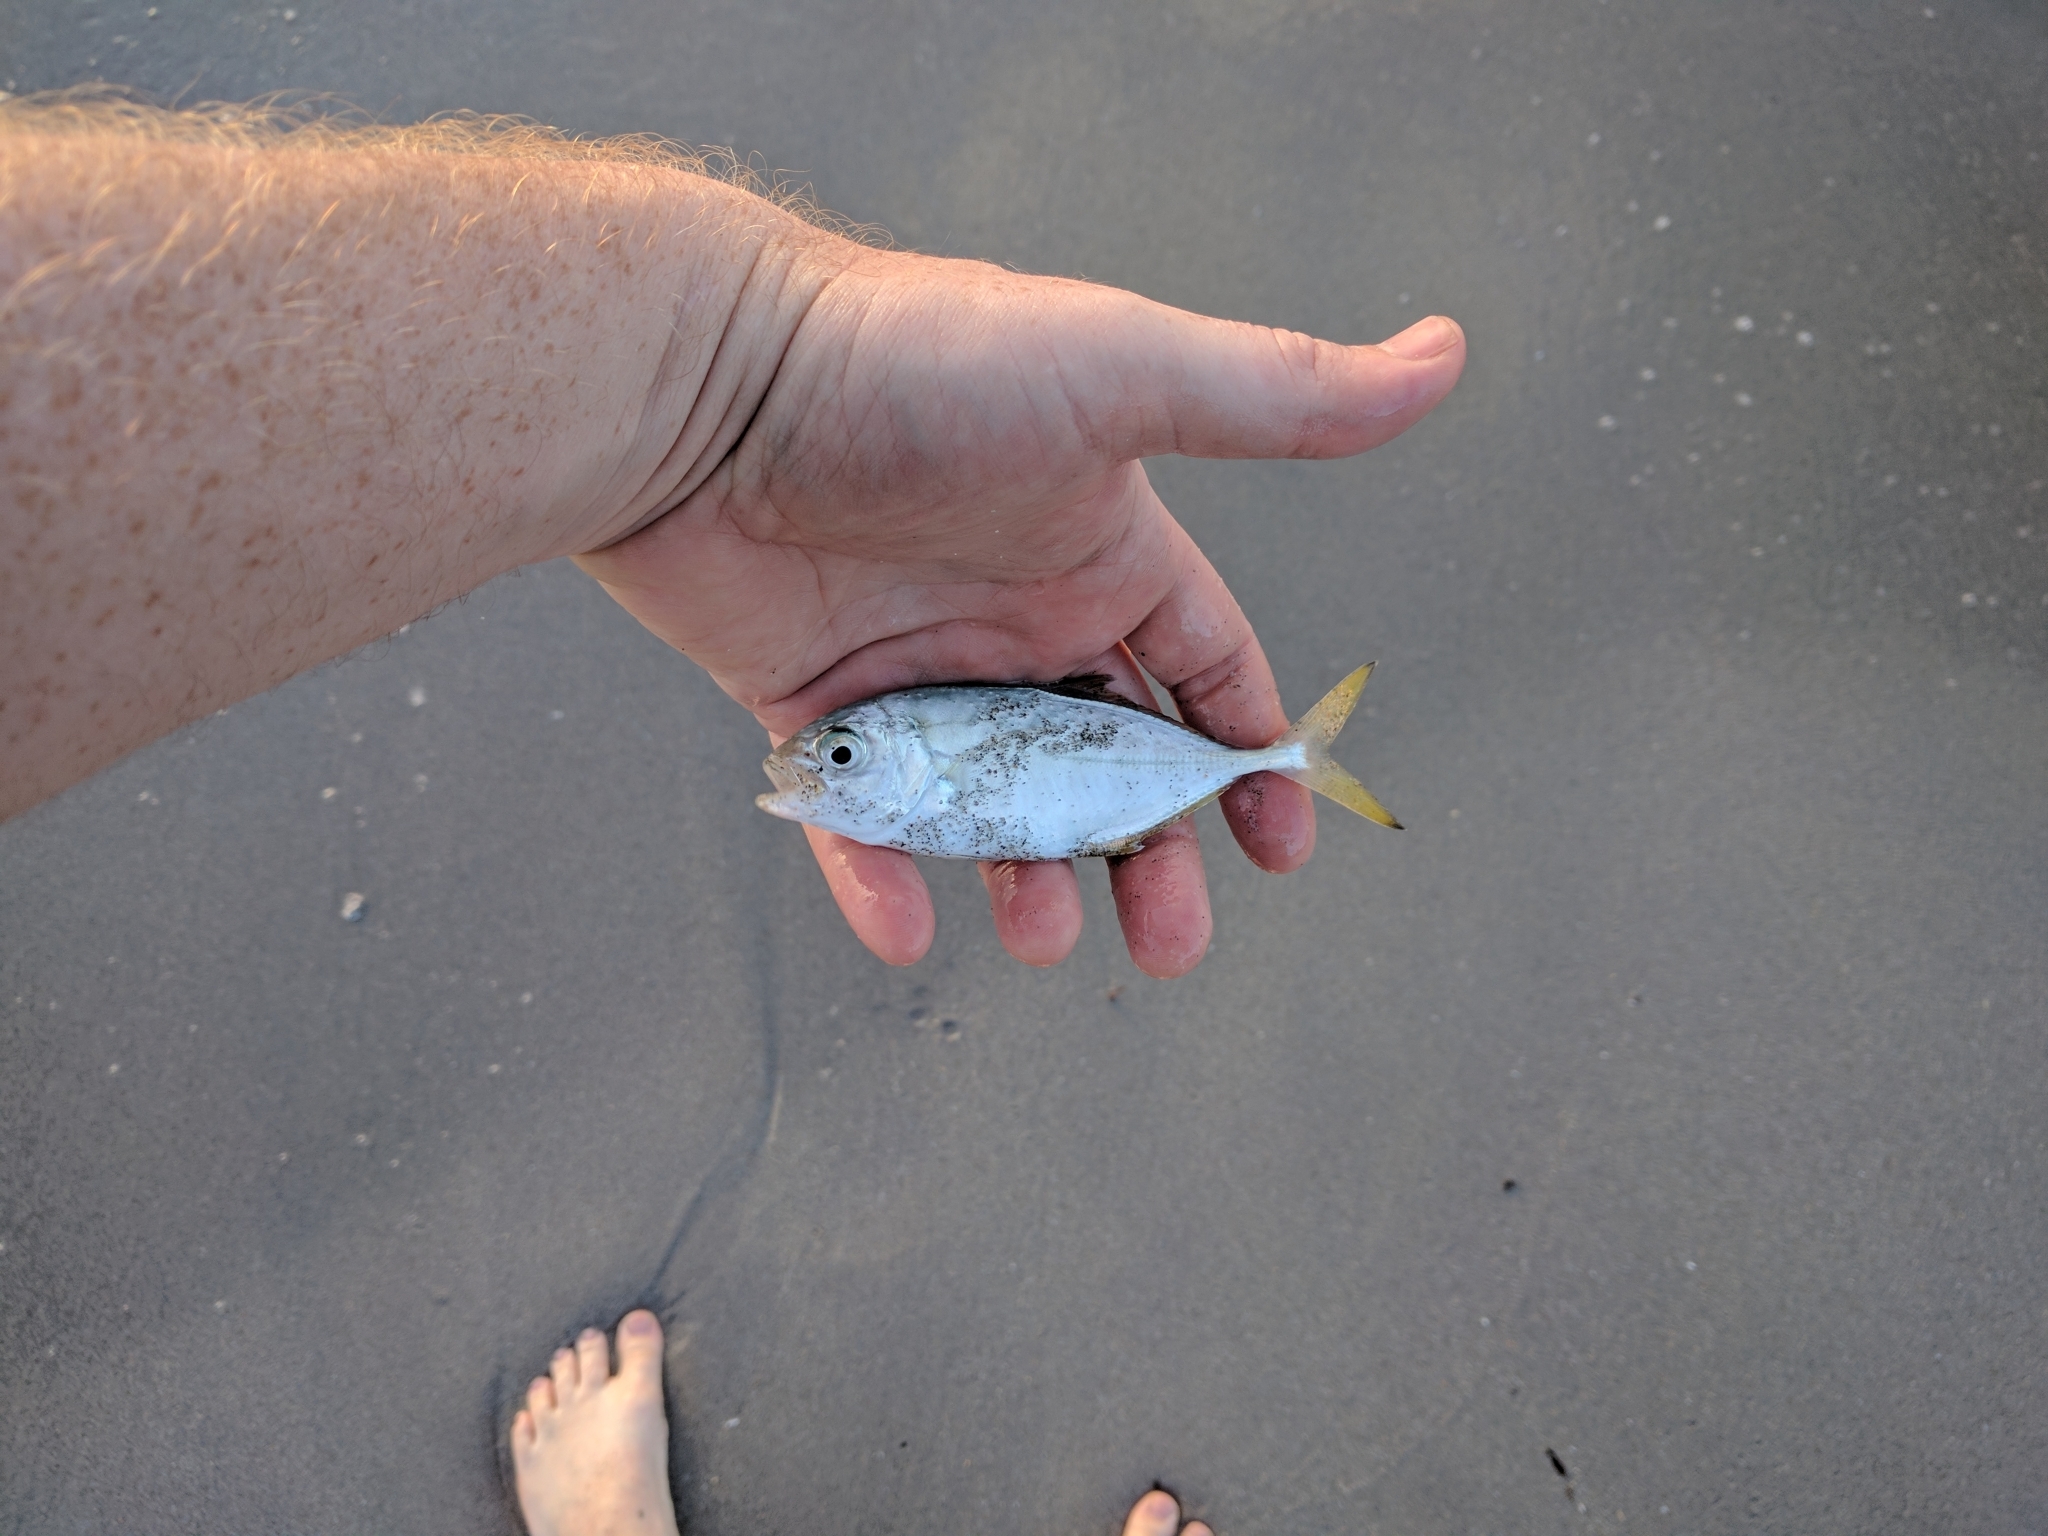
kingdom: Animalia
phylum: Chordata
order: Perciformes
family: Carangidae
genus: Caranx
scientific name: Caranx crysos
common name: Blue runner
